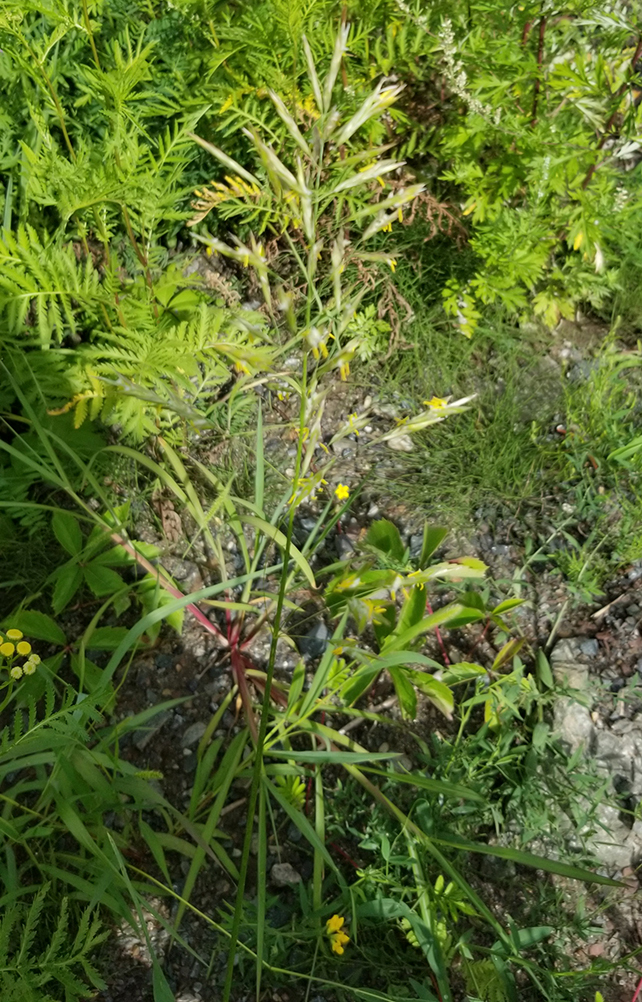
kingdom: Plantae
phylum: Tracheophyta
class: Liliopsida
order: Poales
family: Poaceae
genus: Bromus
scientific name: Bromus inermis
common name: Smooth brome
